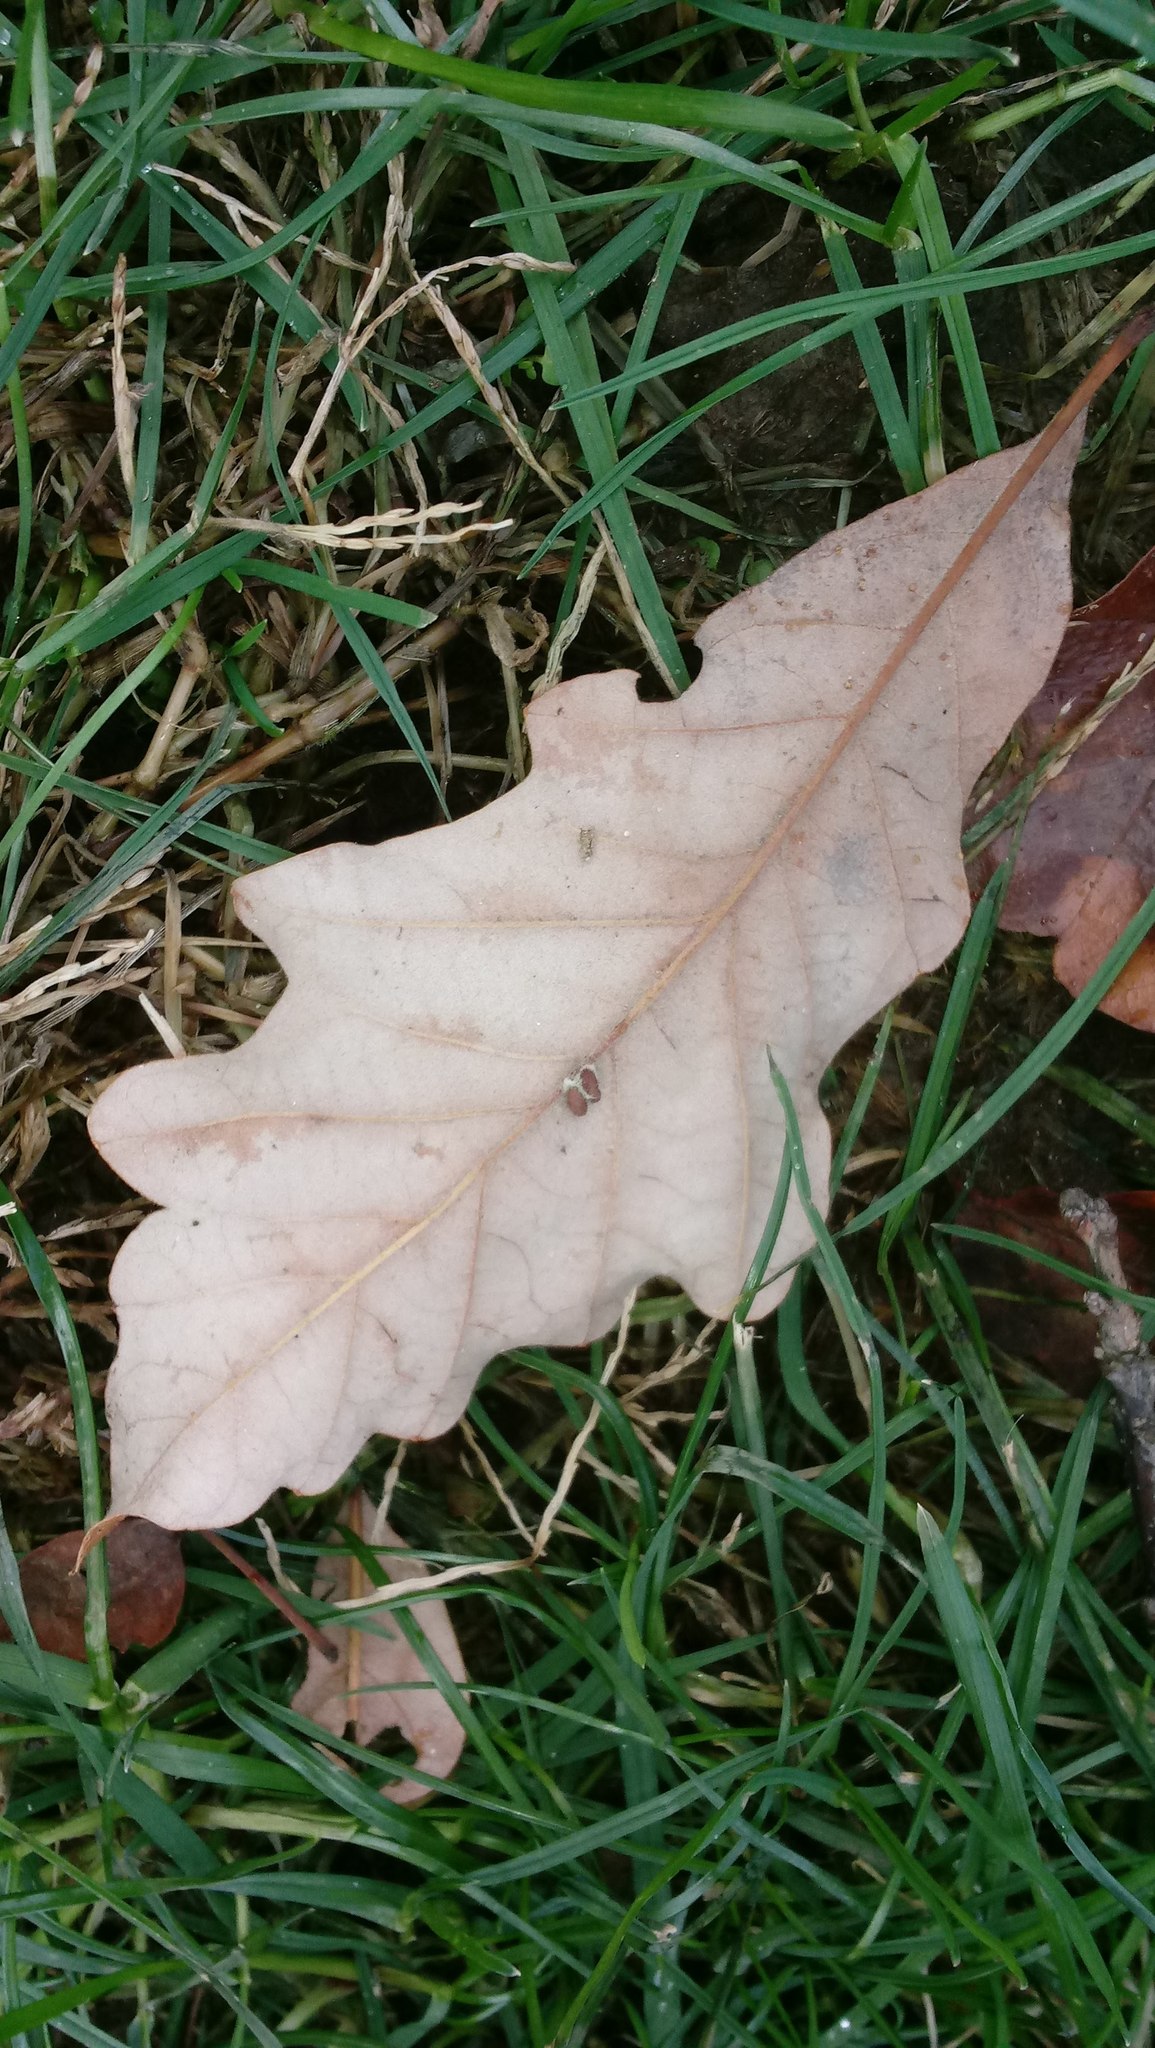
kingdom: Animalia
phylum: Arthropoda
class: Insecta
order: Hymenoptera
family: Cynipidae
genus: Andricus
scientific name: Andricus Druon ignotum
